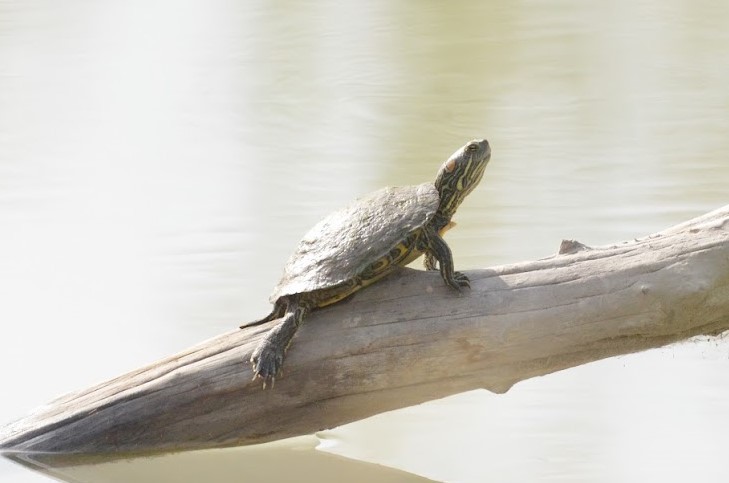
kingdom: Animalia
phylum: Chordata
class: Testudines
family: Emydidae
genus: Trachemys
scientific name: Trachemys gaigeae
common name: Big bend slider
